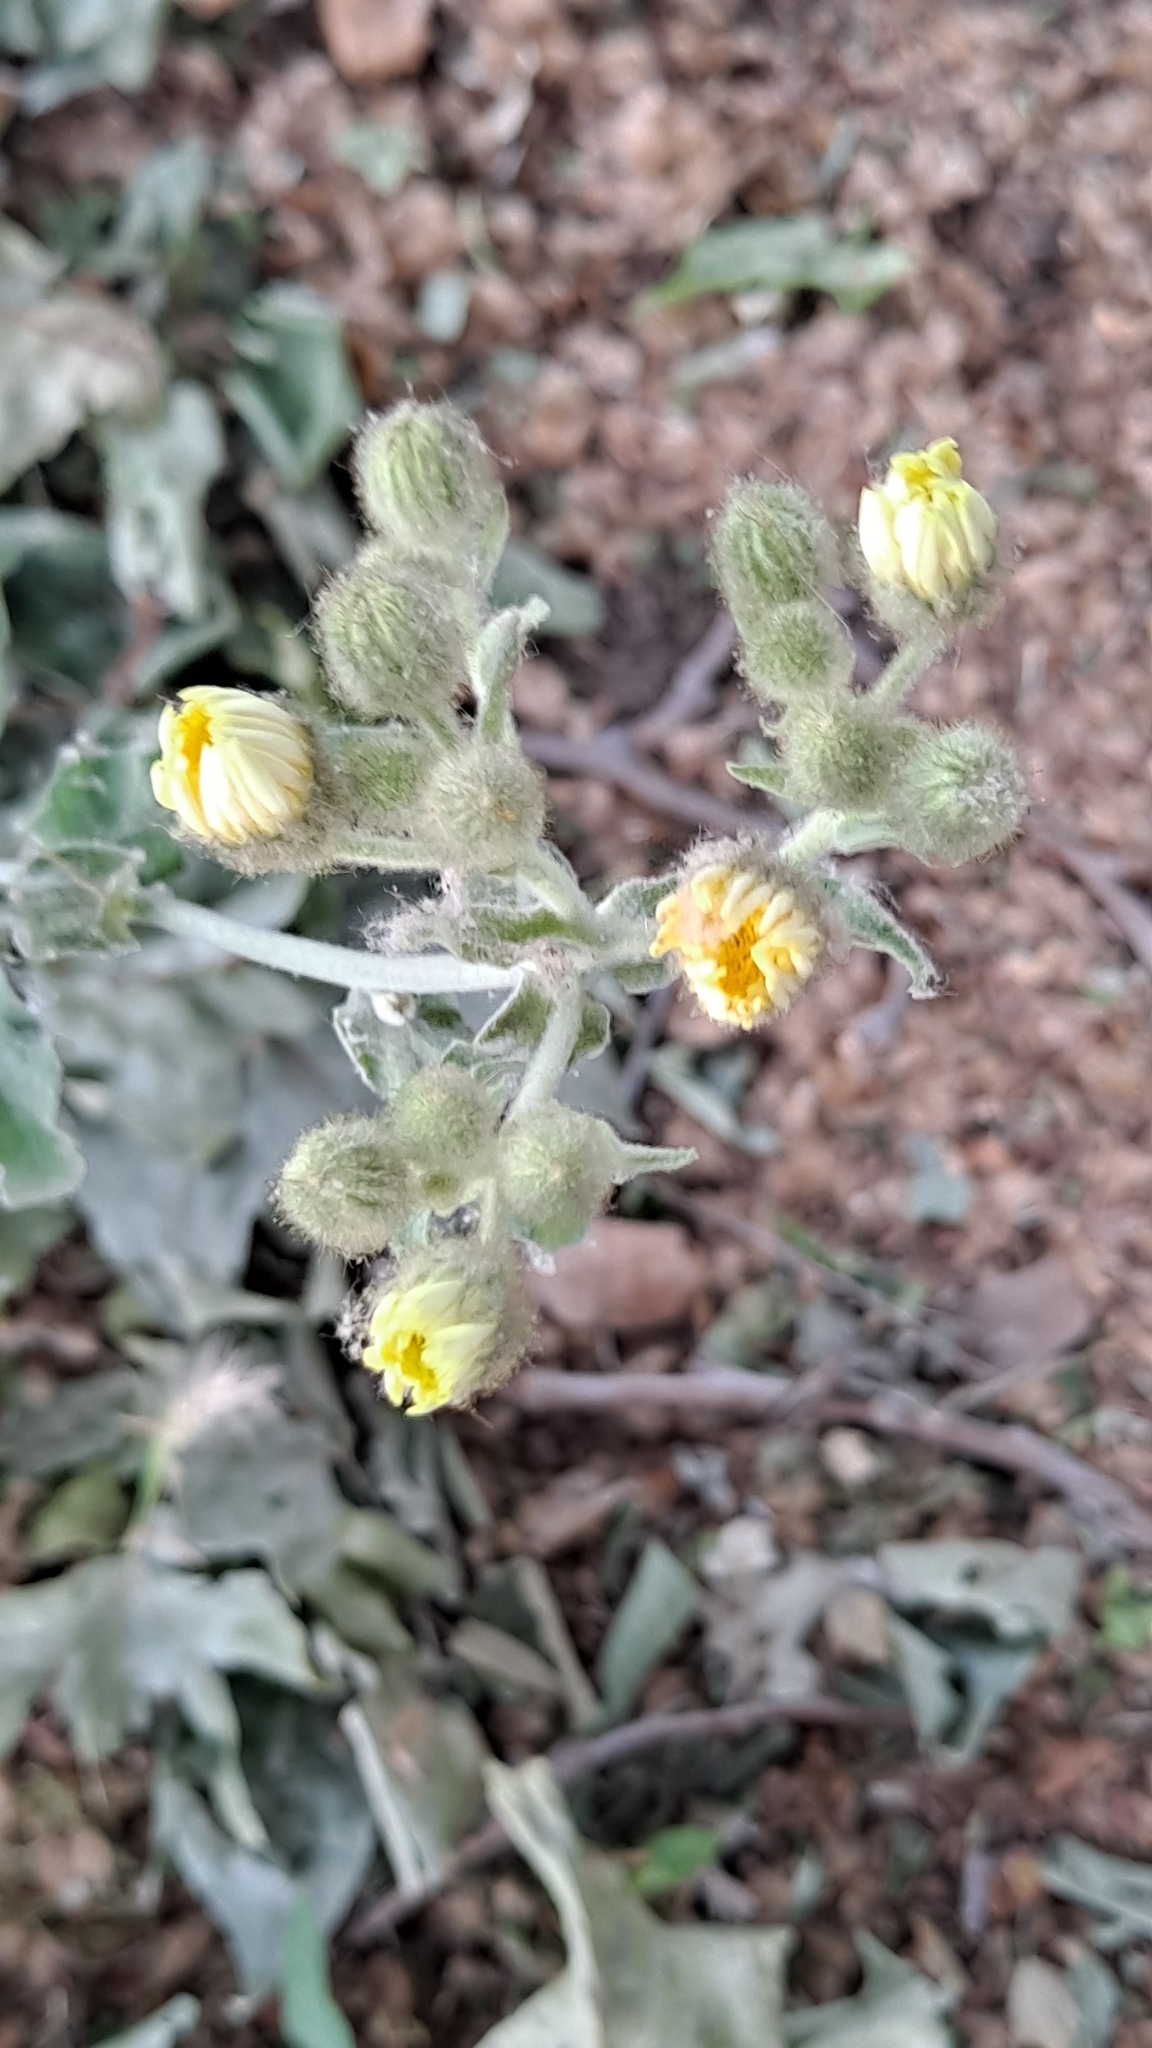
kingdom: Plantae
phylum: Tracheophyta
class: Magnoliopsida
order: Asterales
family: Asteraceae
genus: Andryala
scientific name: Andryala integrifolia
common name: Common andryala
